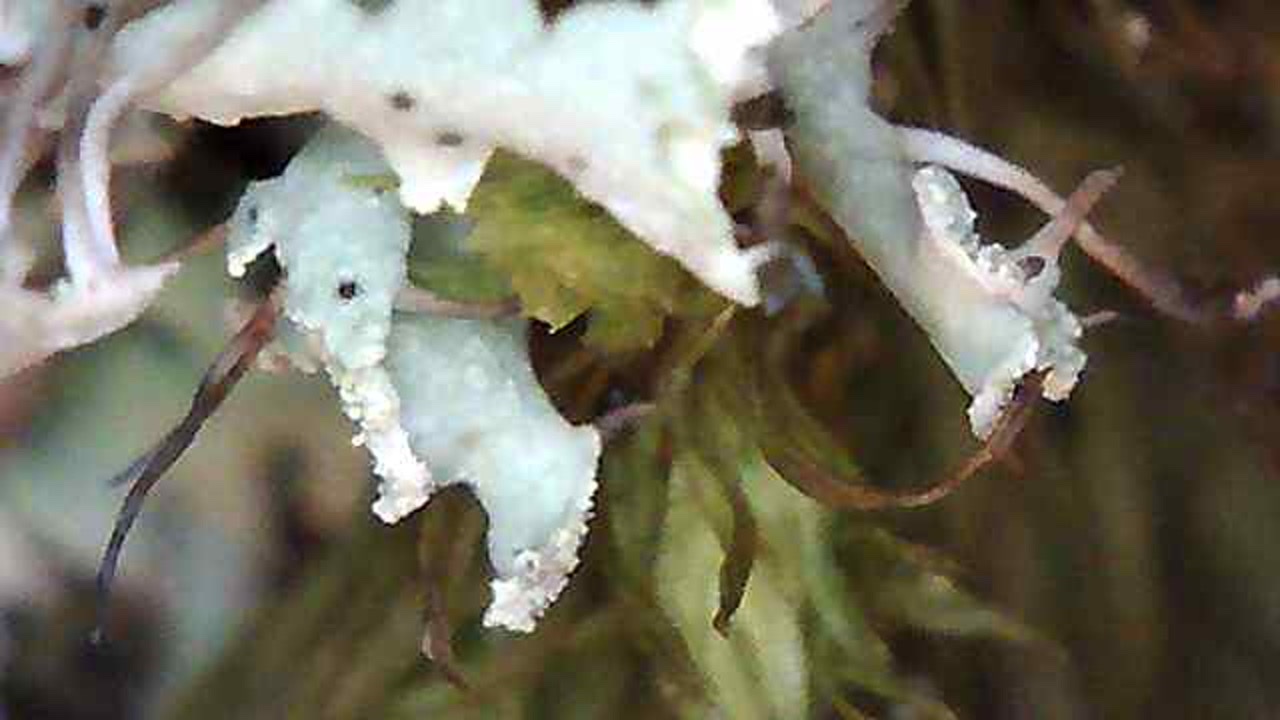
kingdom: Fungi
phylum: Ascomycota
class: Lecanoromycetes
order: Caliciales
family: Physciaceae
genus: Physcia
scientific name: Physcia tenella
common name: Fringed rosette lichen
